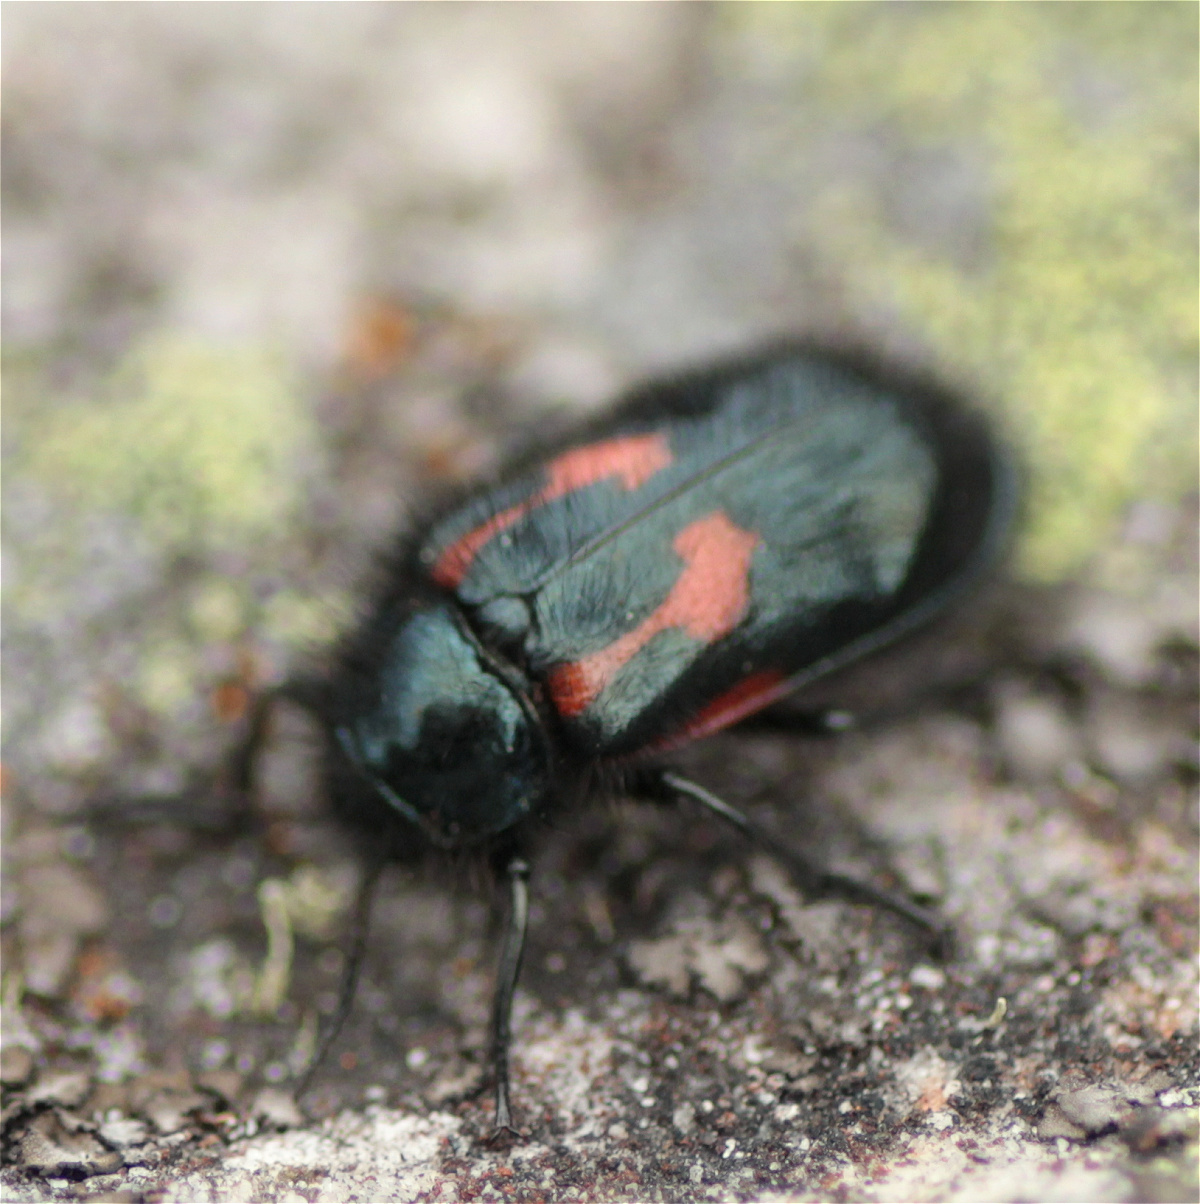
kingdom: Animalia
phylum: Arthropoda
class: Insecta
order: Coleoptera
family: Melyridae
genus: Astylus
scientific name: Astylus
